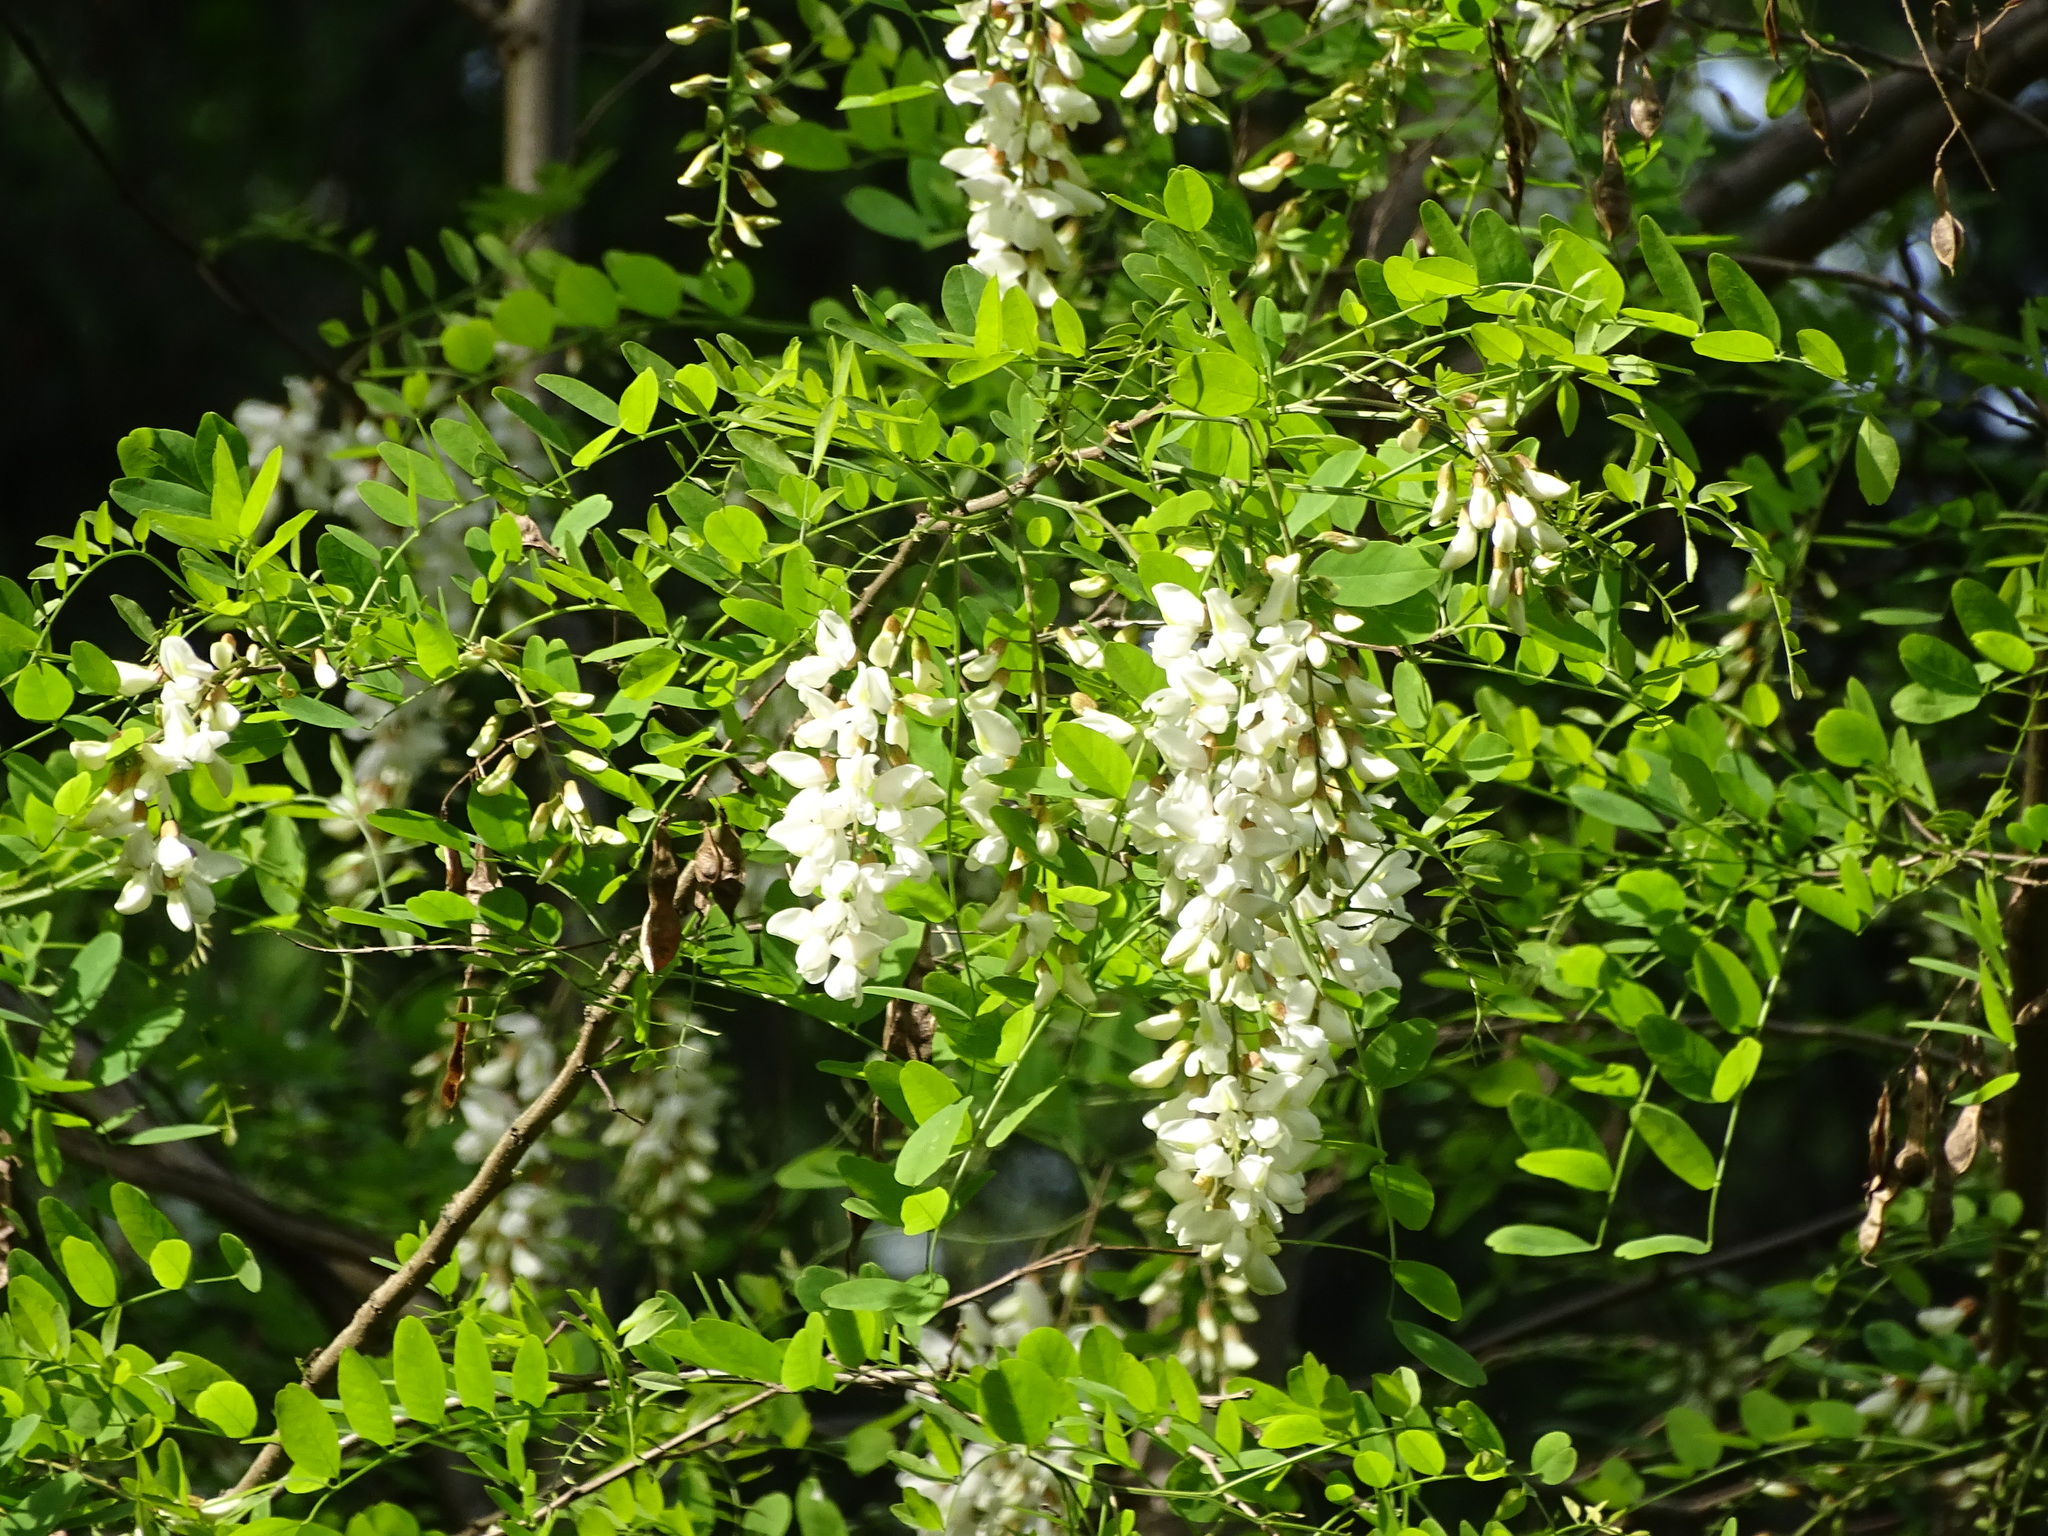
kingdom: Plantae
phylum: Tracheophyta
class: Magnoliopsida
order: Fabales
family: Fabaceae
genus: Robinia
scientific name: Robinia pseudoacacia
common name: Black locust
